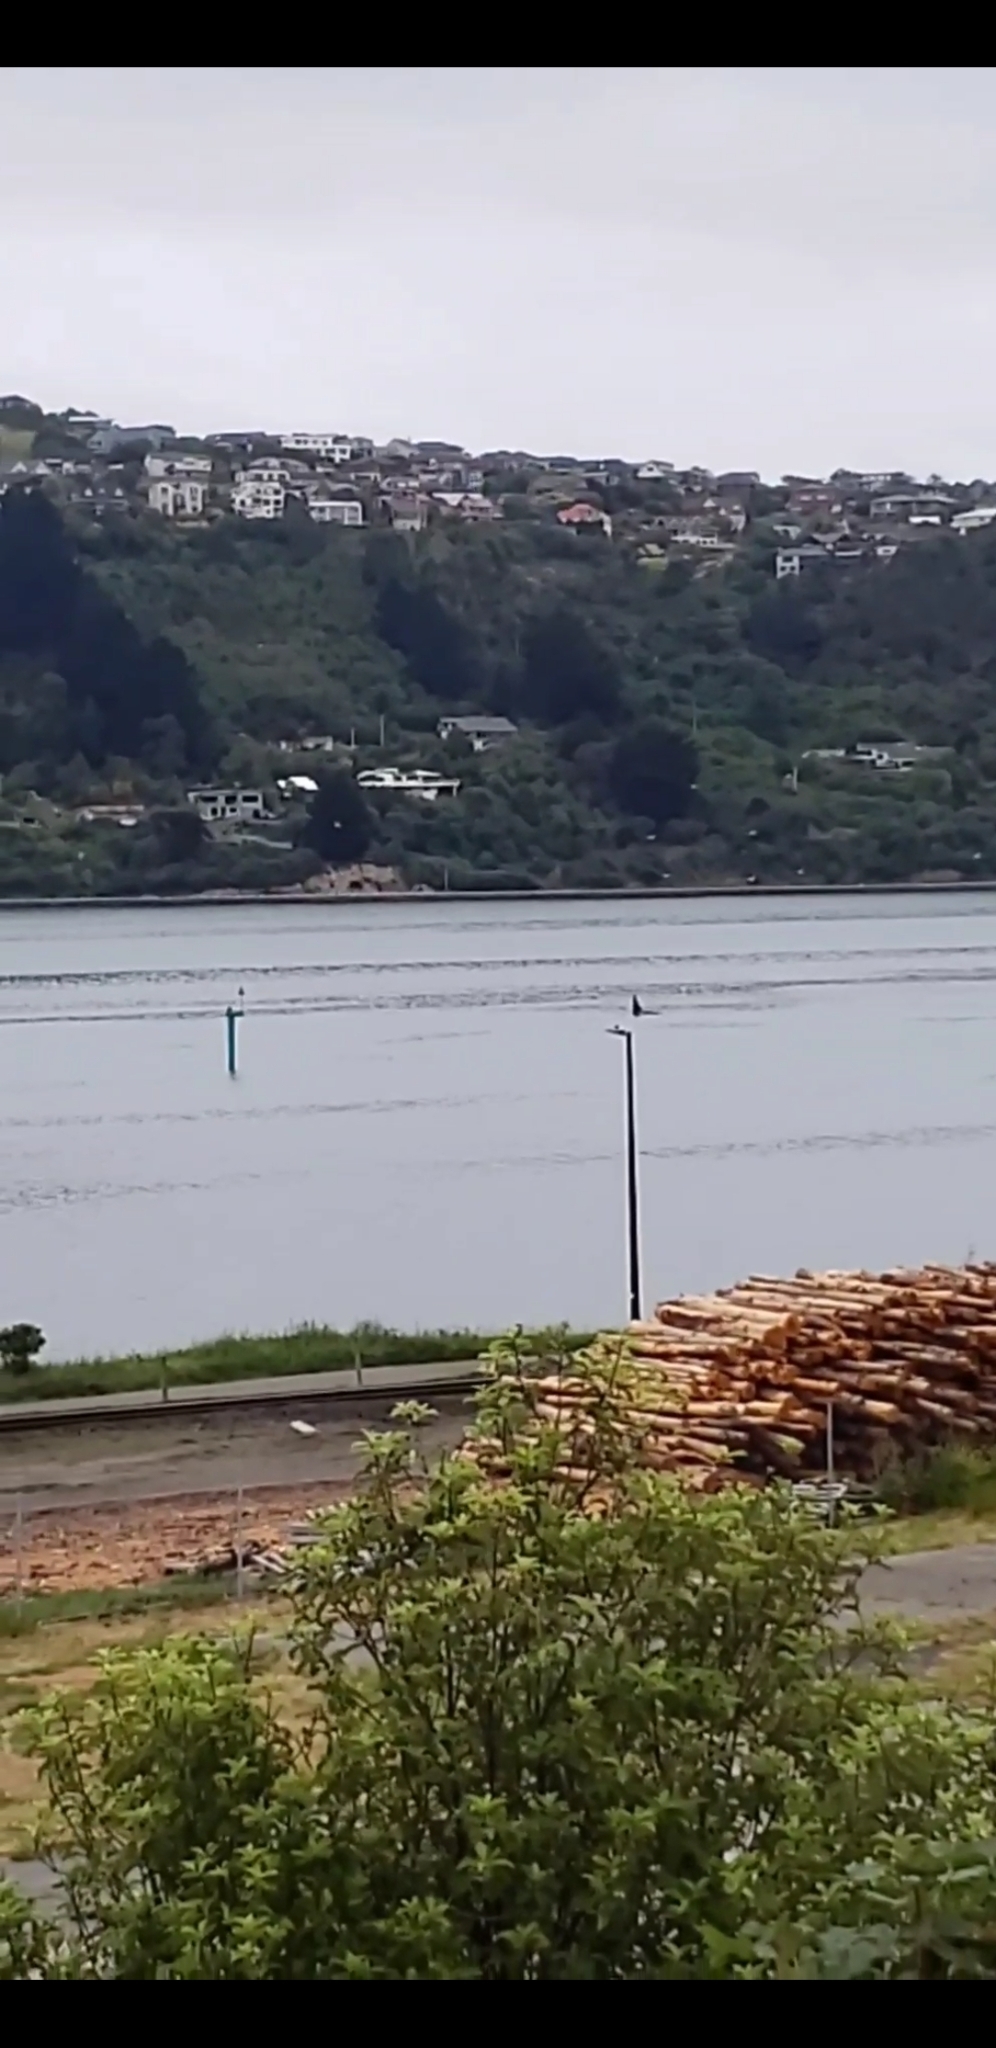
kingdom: Animalia
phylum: Chordata
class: Mammalia
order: Cetacea
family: Delphinidae
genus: Orcinus
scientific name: Orcinus orca
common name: Killer whale
